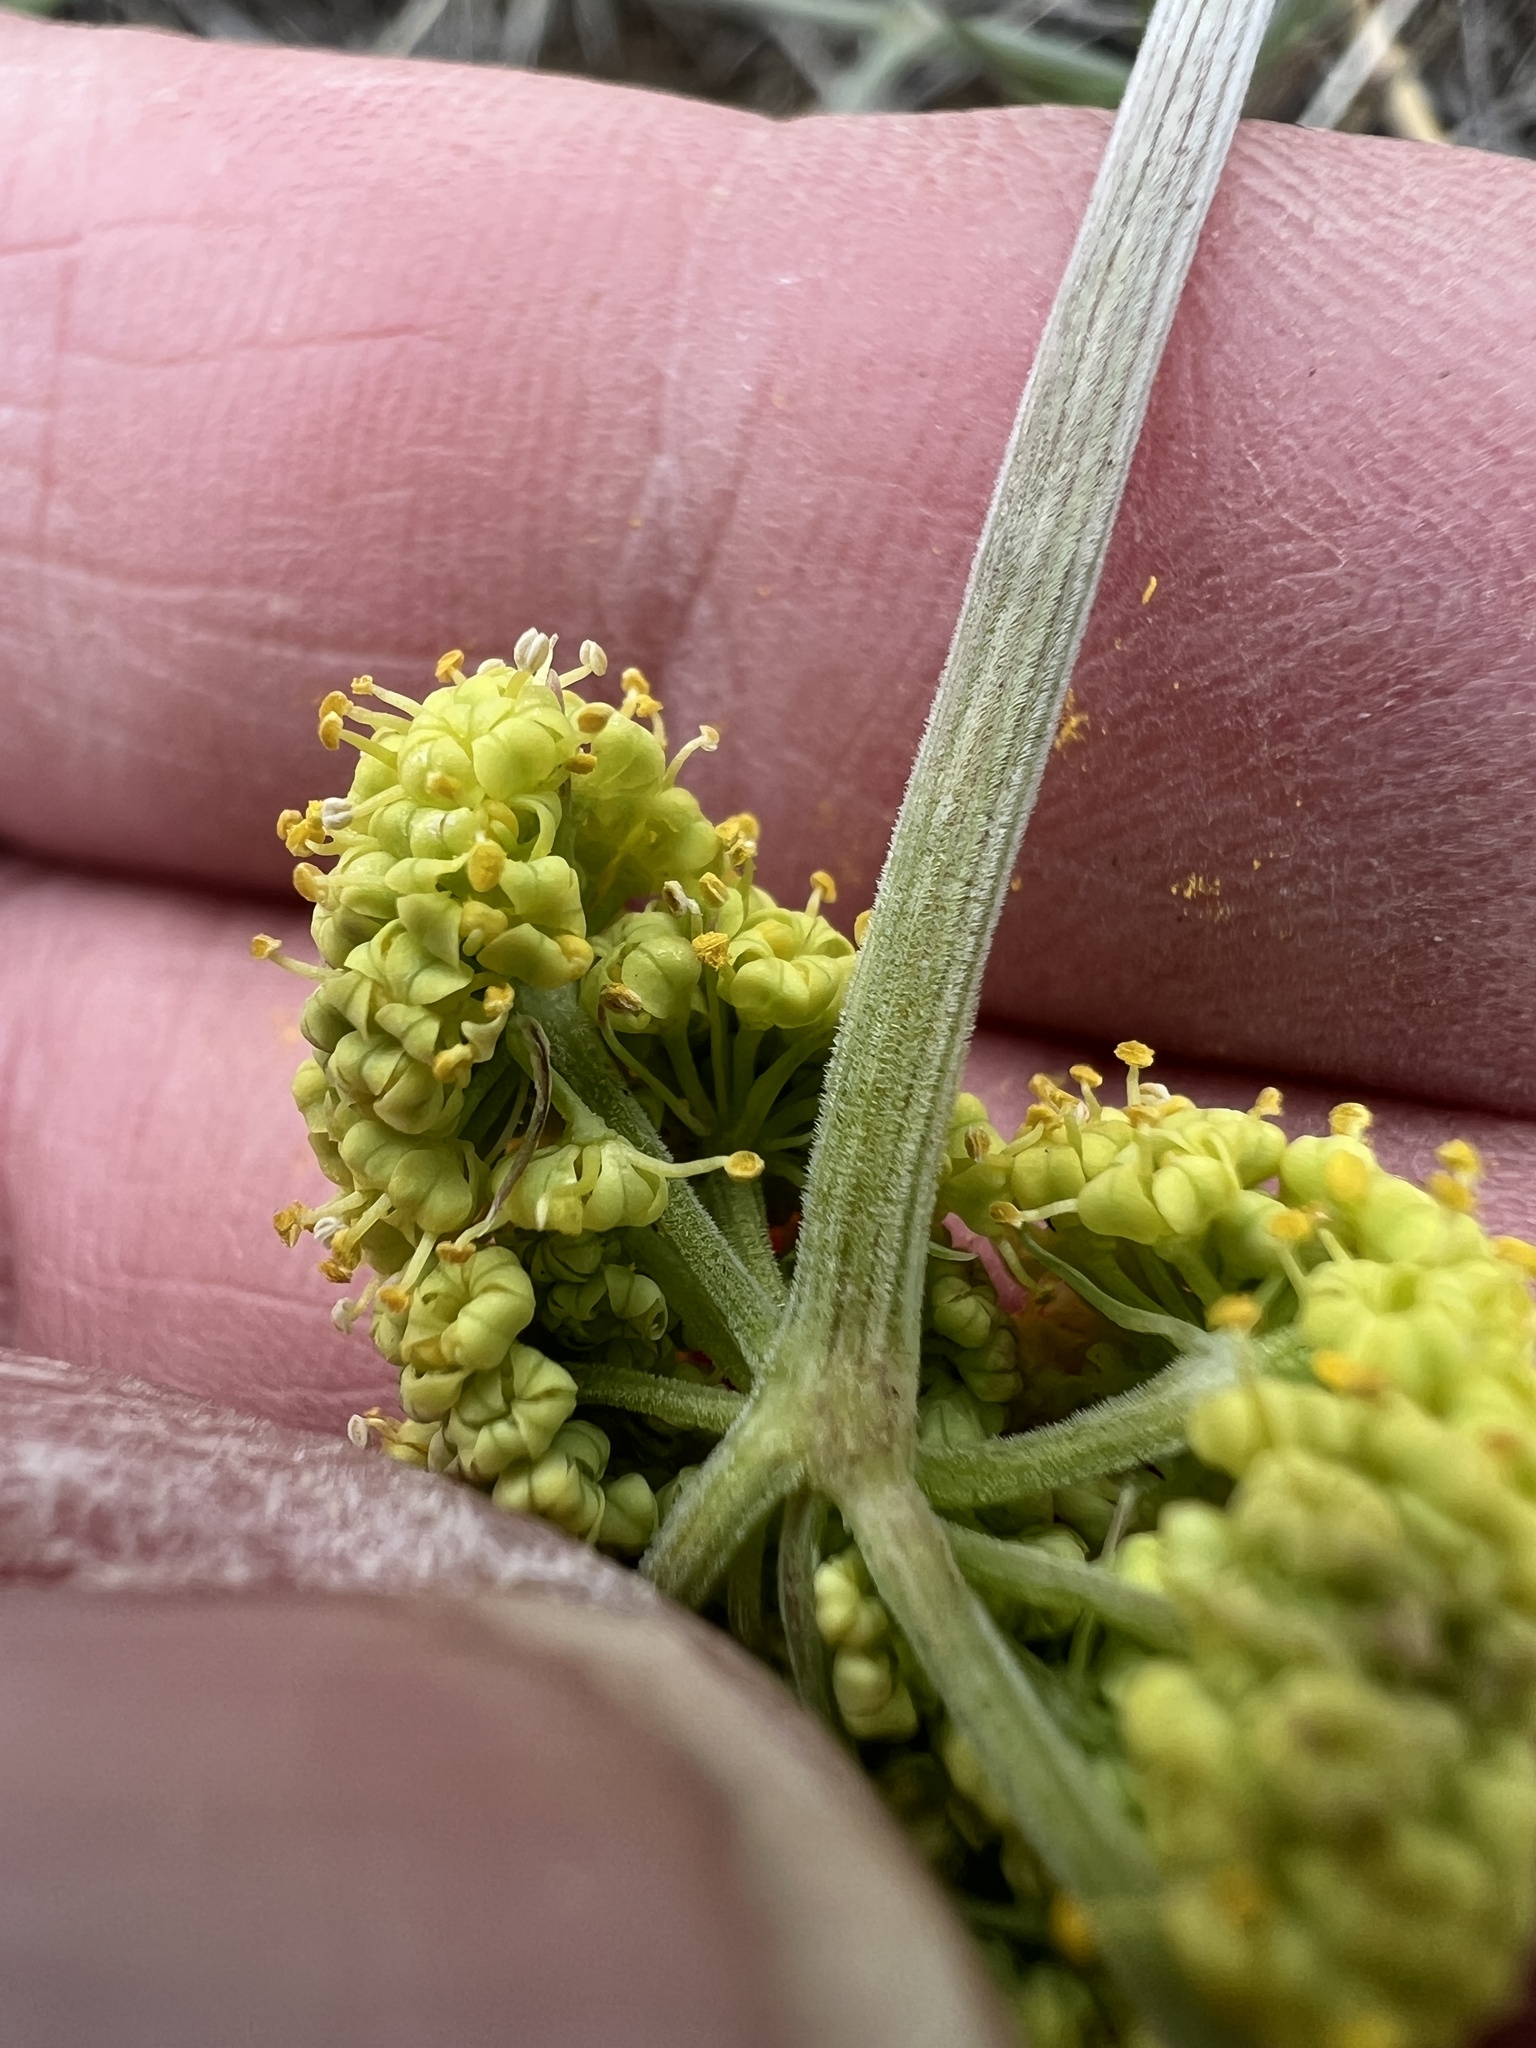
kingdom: Plantae
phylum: Tracheophyta
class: Magnoliopsida
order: Apiales
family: Apiaceae
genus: Lomatium
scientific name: Lomatium simplex
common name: Great basin biscuitroot
